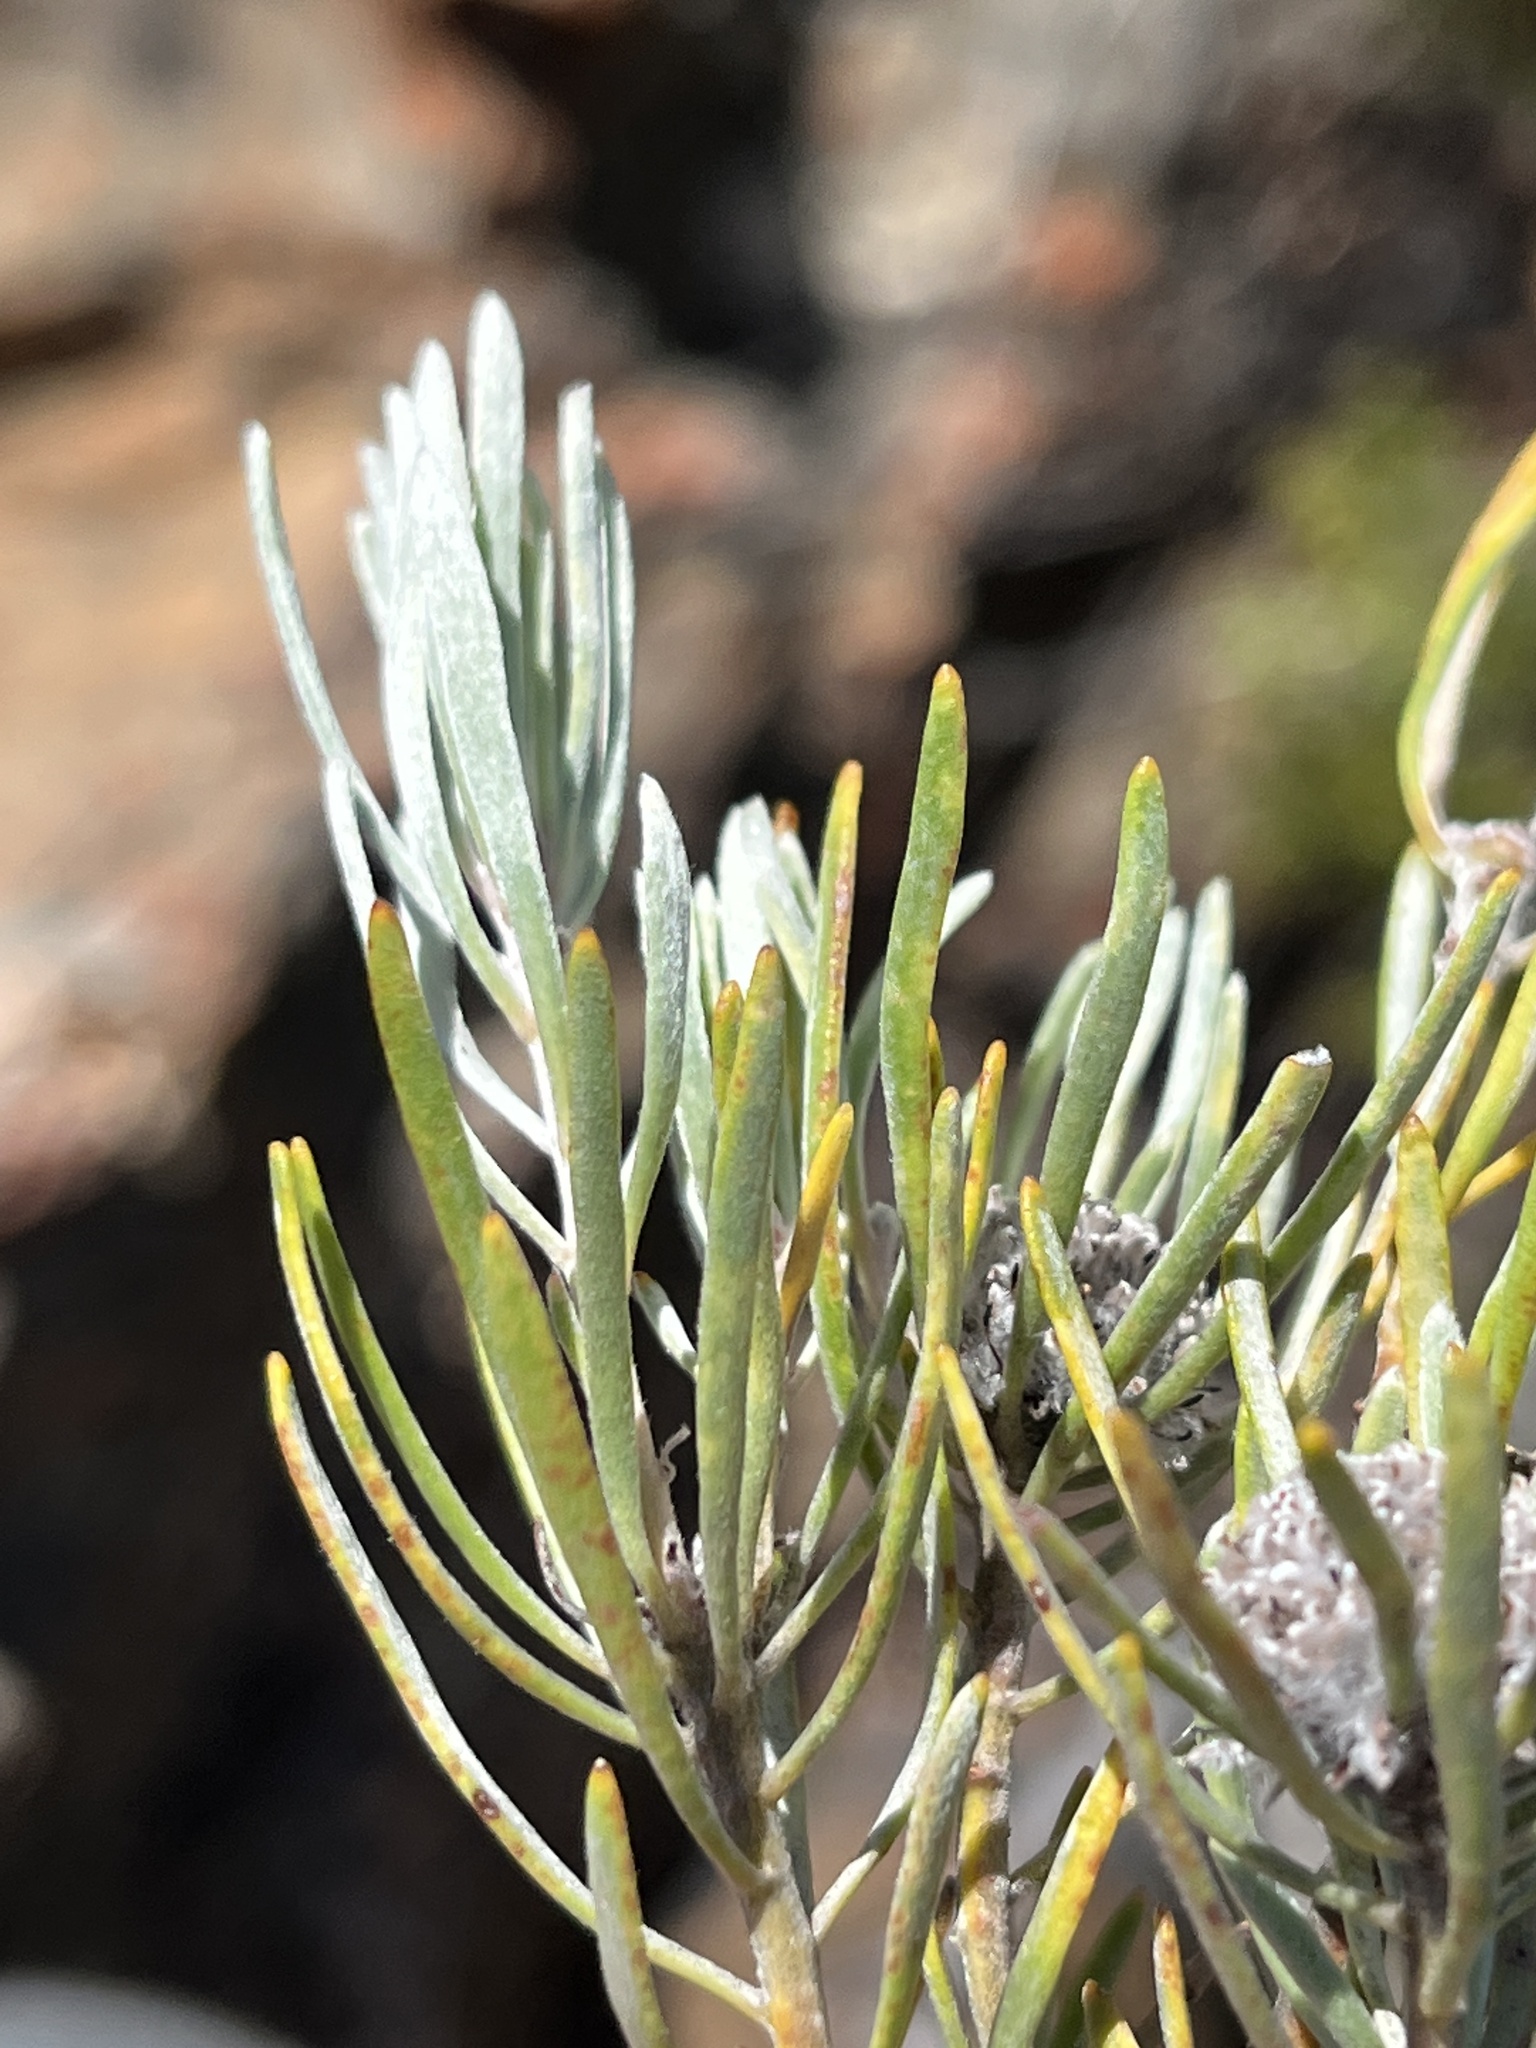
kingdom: Plantae
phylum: Tracheophyta
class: Magnoliopsida
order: Proteales
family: Proteaceae
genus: Leucadendron
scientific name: Leucadendron album
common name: Linear-leaf conebush
